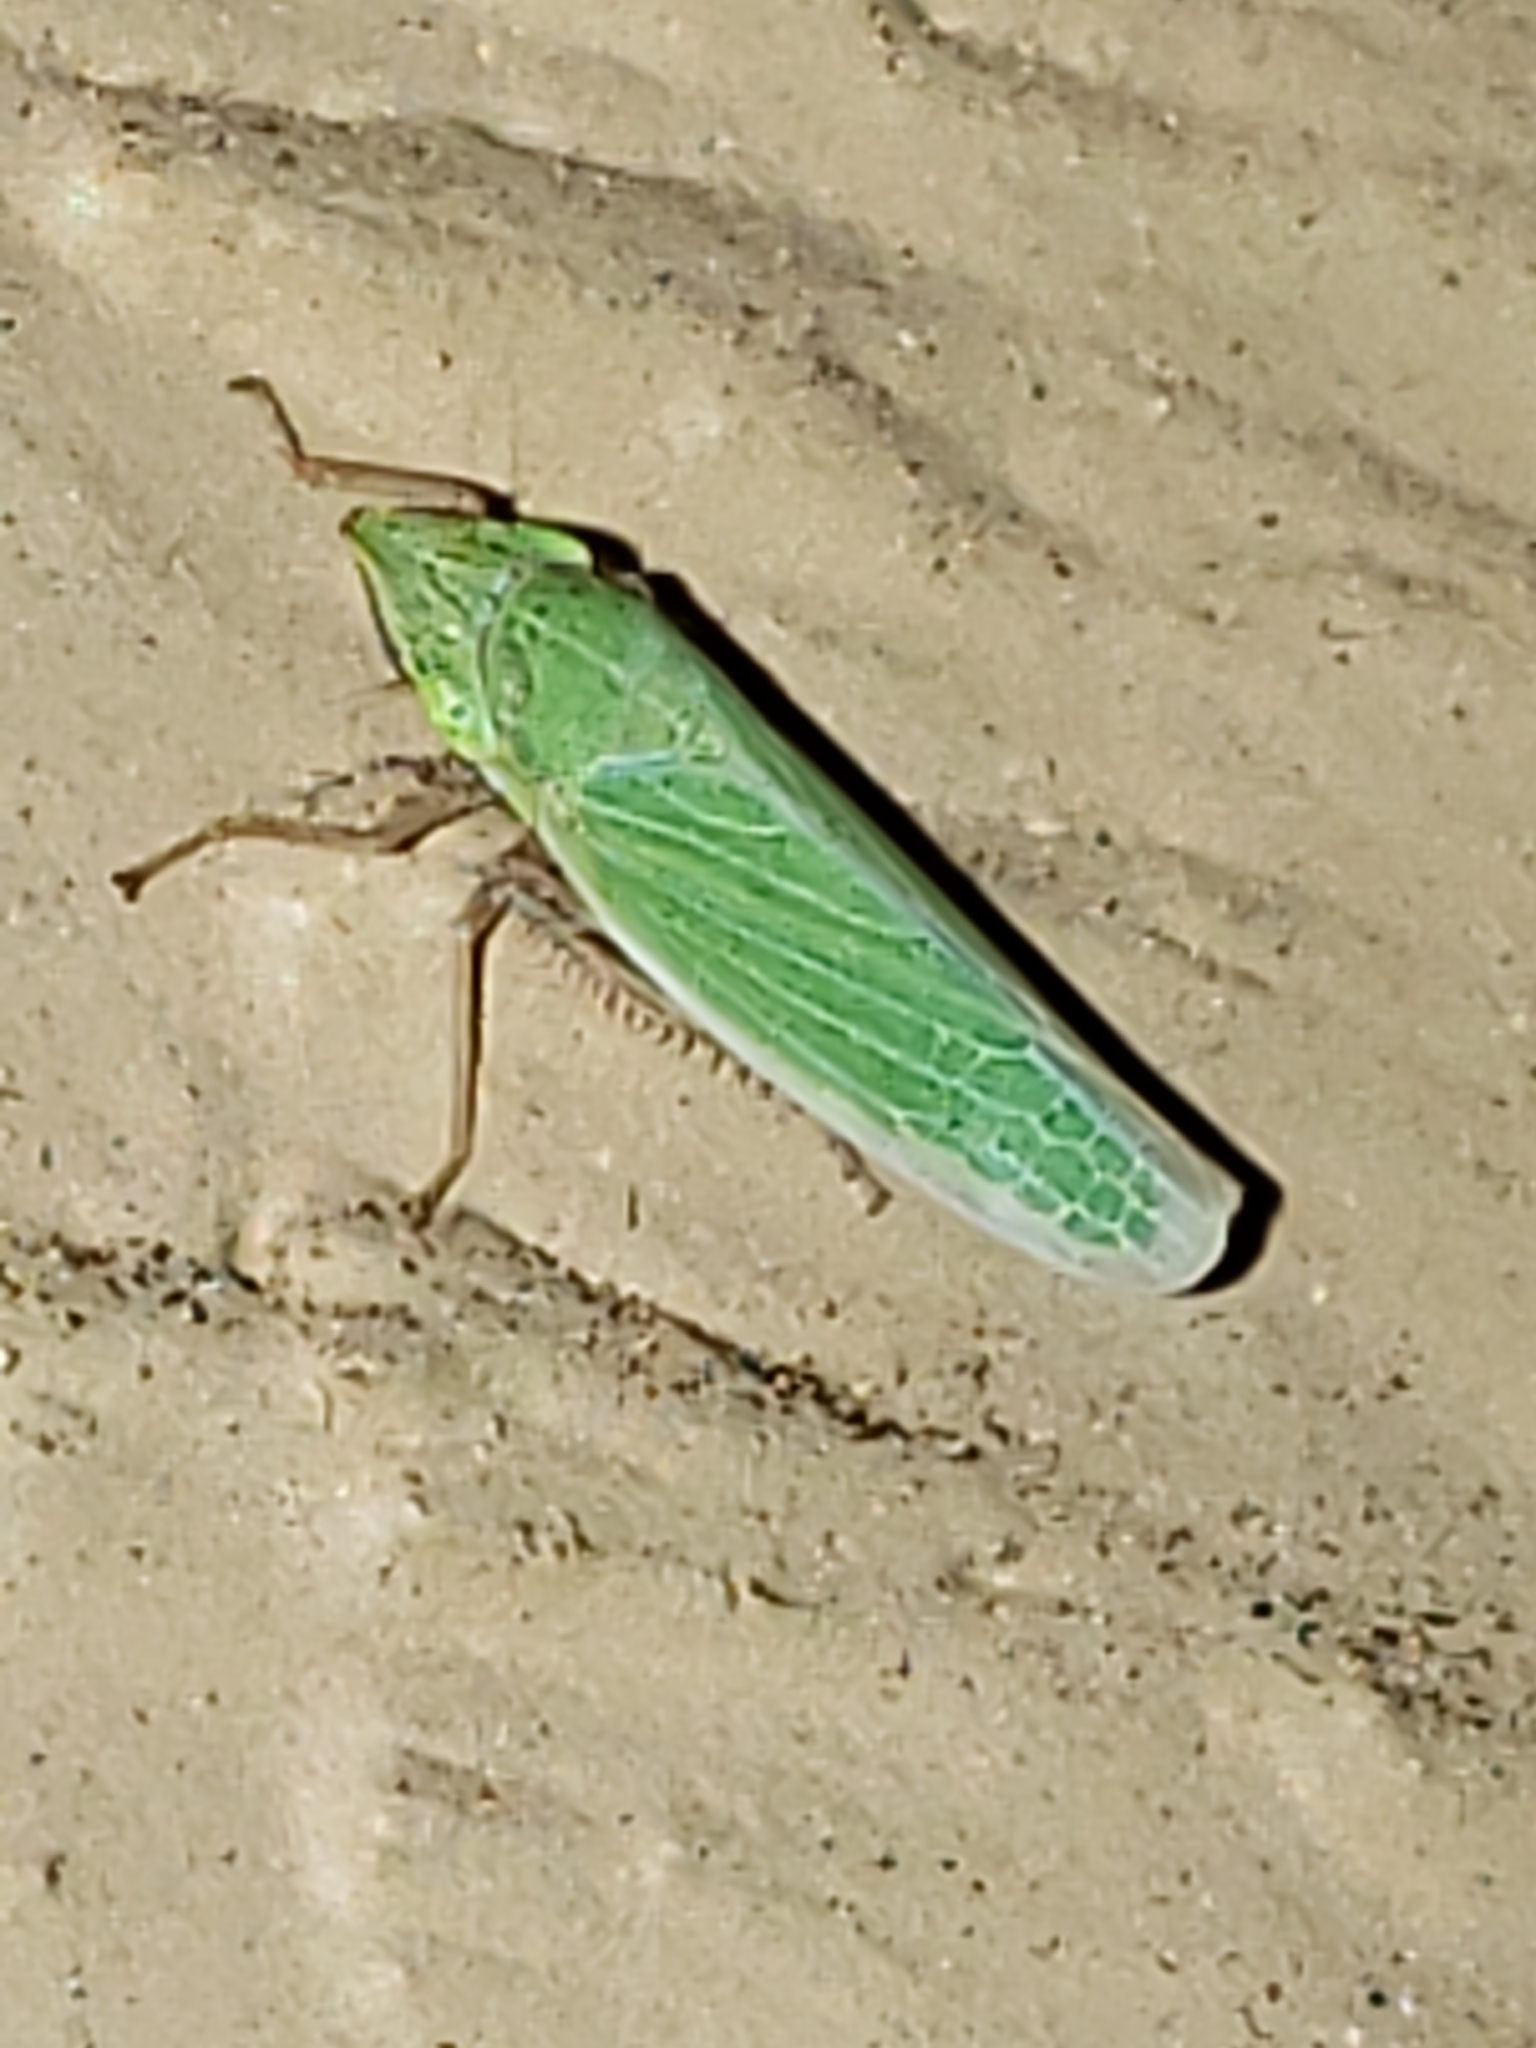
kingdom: Animalia
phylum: Arthropoda
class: Insecta
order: Hemiptera
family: Cicadellidae
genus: Draeculacephala
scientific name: Draeculacephala antica
